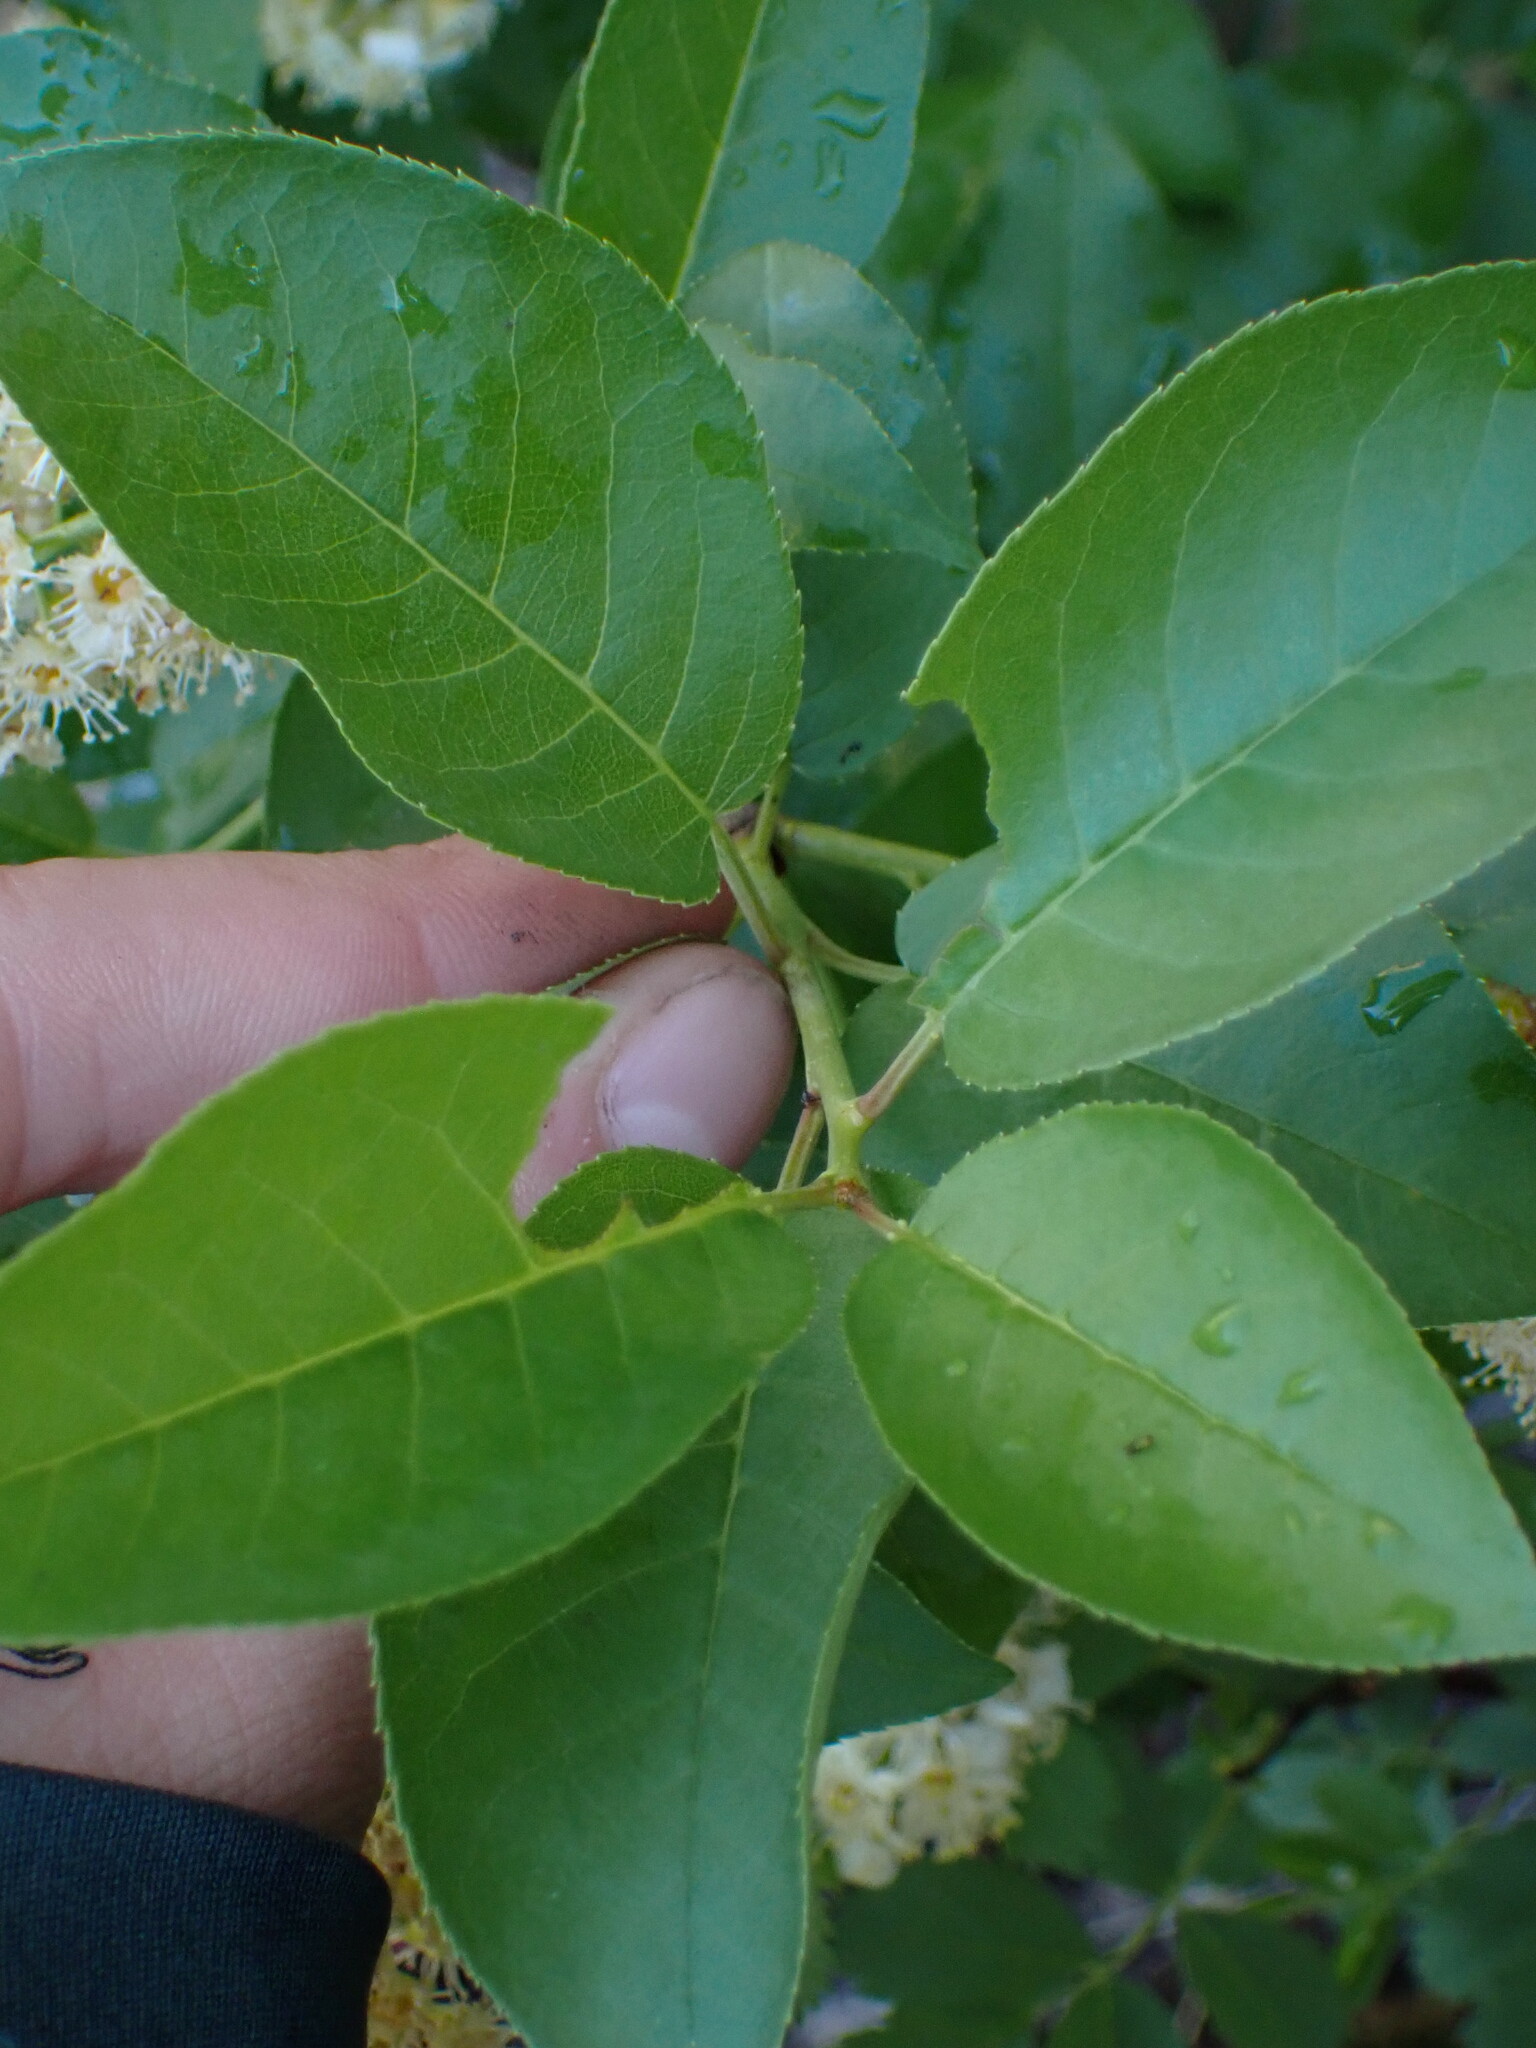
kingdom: Plantae
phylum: Tracheophyta
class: Magnoliopsida
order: Rosales
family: Rosaceae
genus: Prunus
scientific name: Prunus virginiana
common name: Chokecherry
